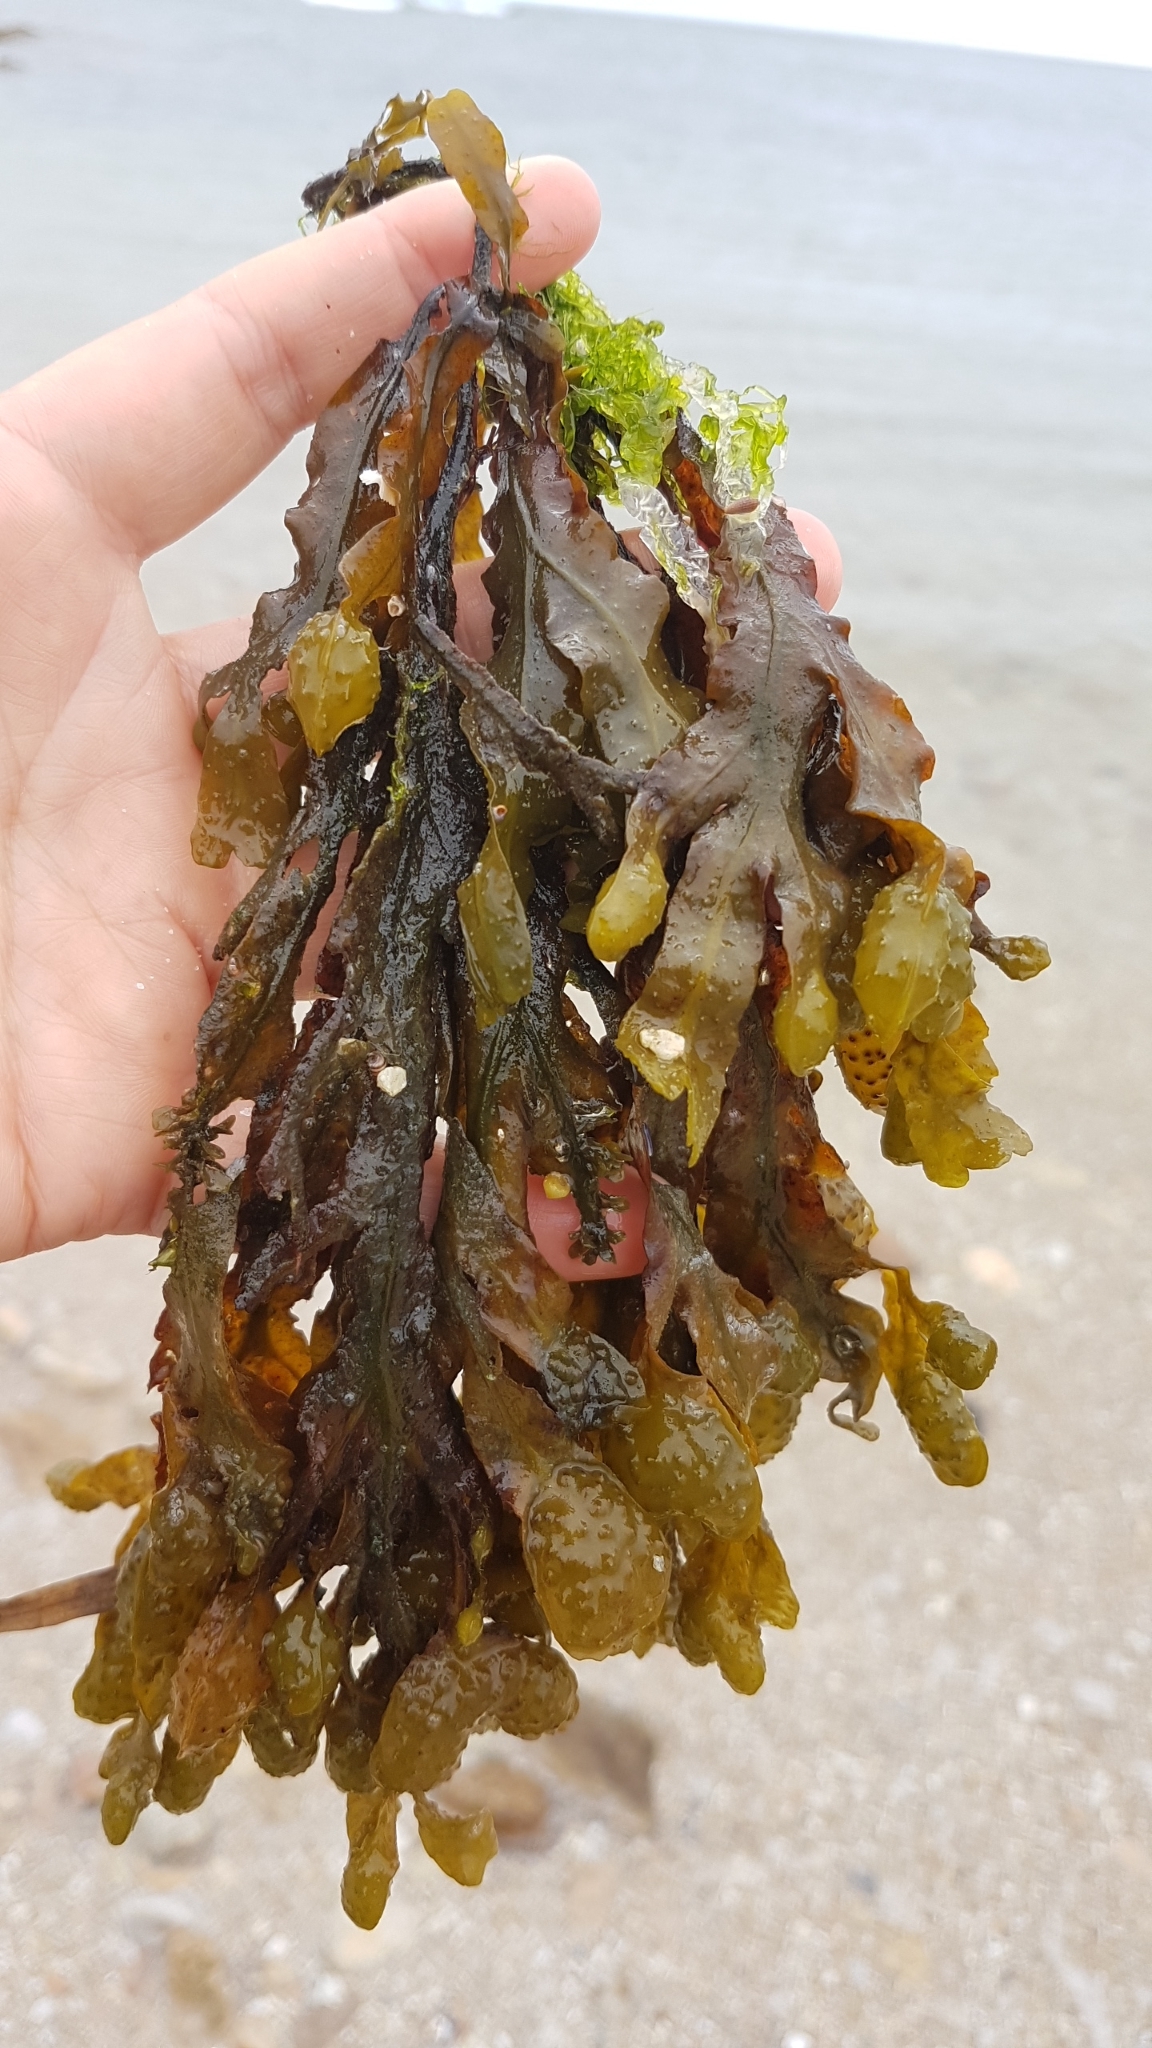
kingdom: Chromista
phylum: Ochrophyta
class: Phaeophyceae
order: Fucales
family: Fucaceae
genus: Fucus
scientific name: Fucus spiralis
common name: Spiral wrack
